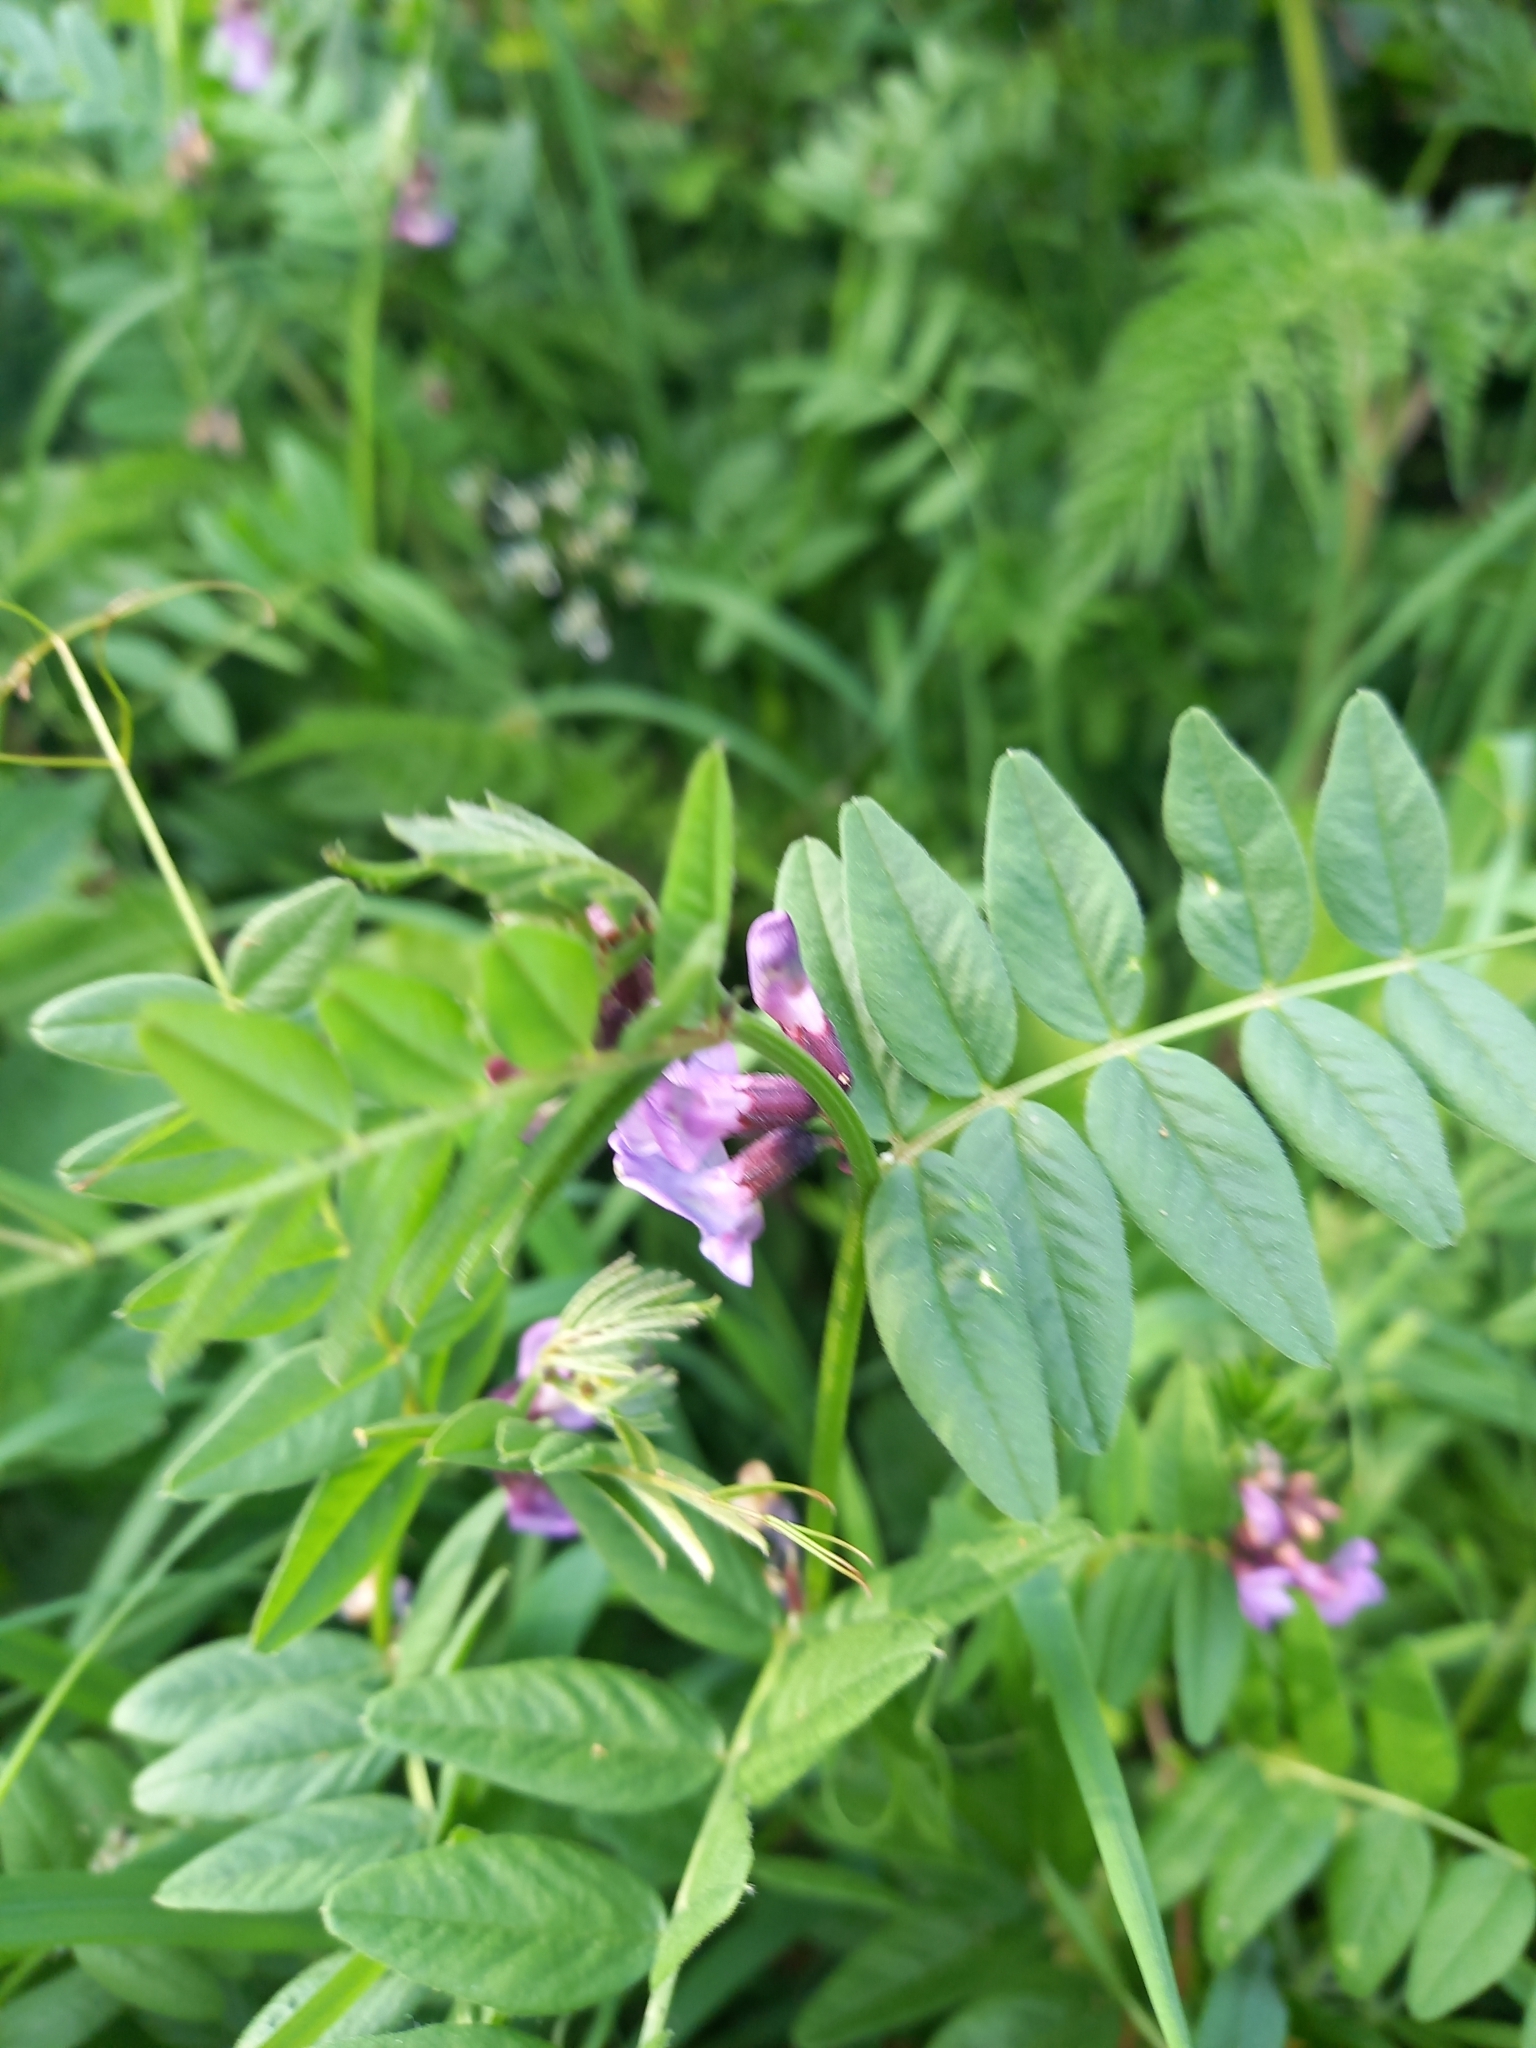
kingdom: Plantae
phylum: Tracheophyta
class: Magnoliopsida
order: Fabales
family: Fabaceae
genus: Vicia
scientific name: Vicia sepium
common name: Bush vetch
